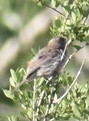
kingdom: Animalia
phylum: Chordata
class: Aves
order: Passeriformes
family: Fringillidae
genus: Haemorhous
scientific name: Haemorhous mexicanus
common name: House finch
